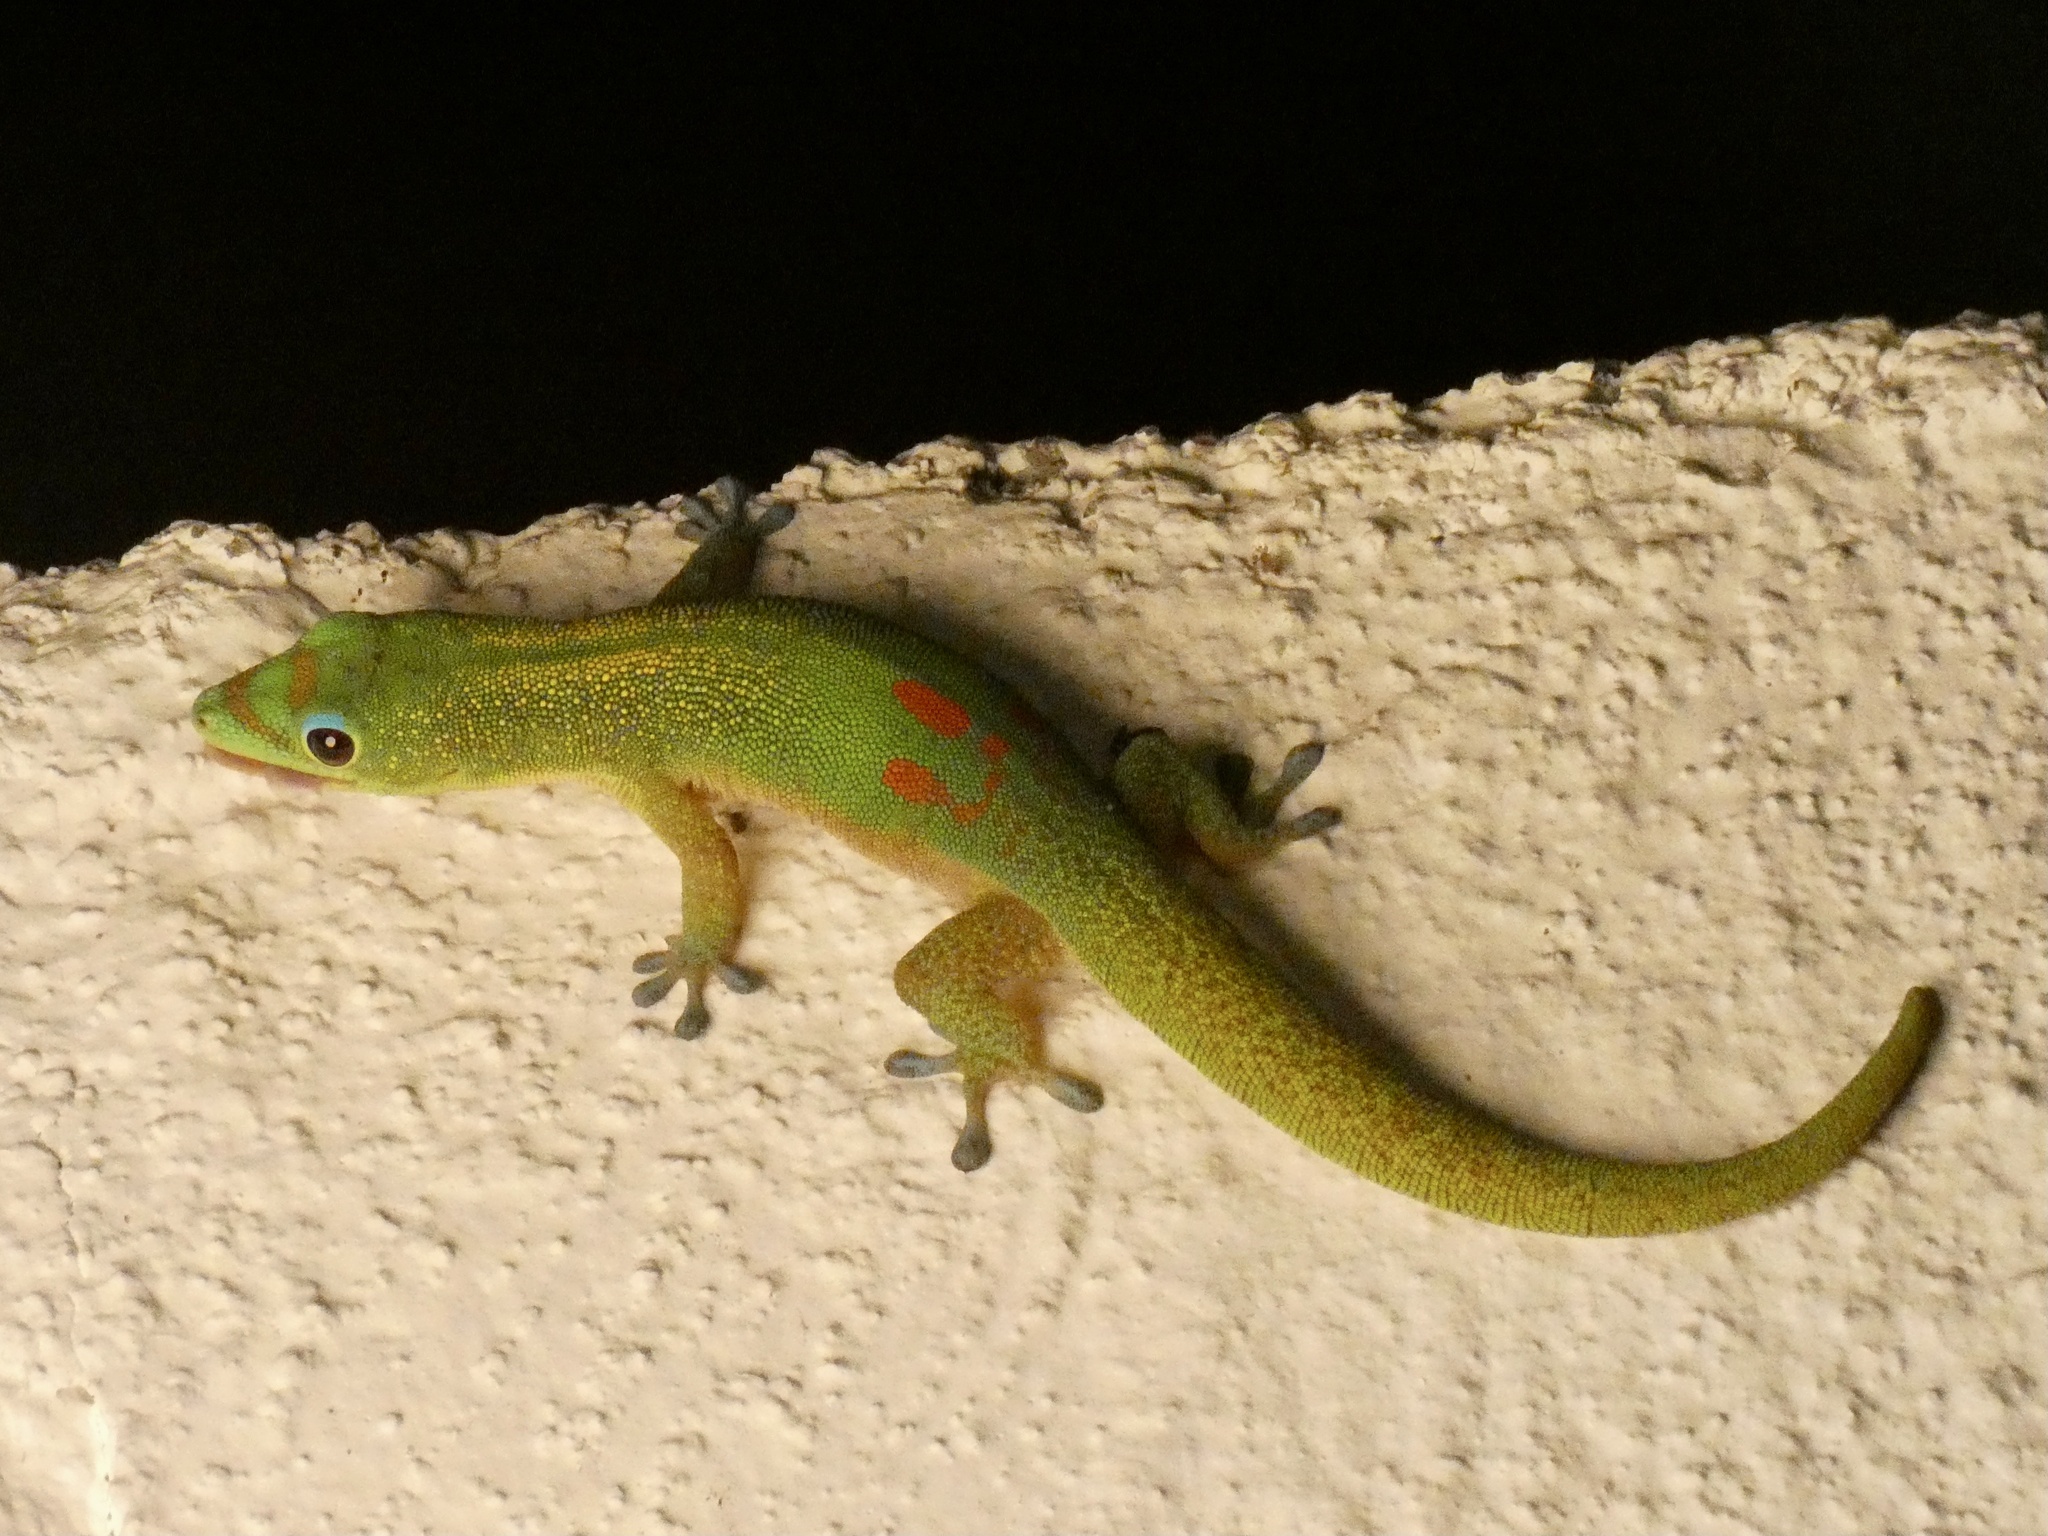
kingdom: Animalia
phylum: Chordata
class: Squamata
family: Gekkonidae
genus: Phelsuma
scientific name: Phelsuma laticauda
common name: Gold dust day gecko
